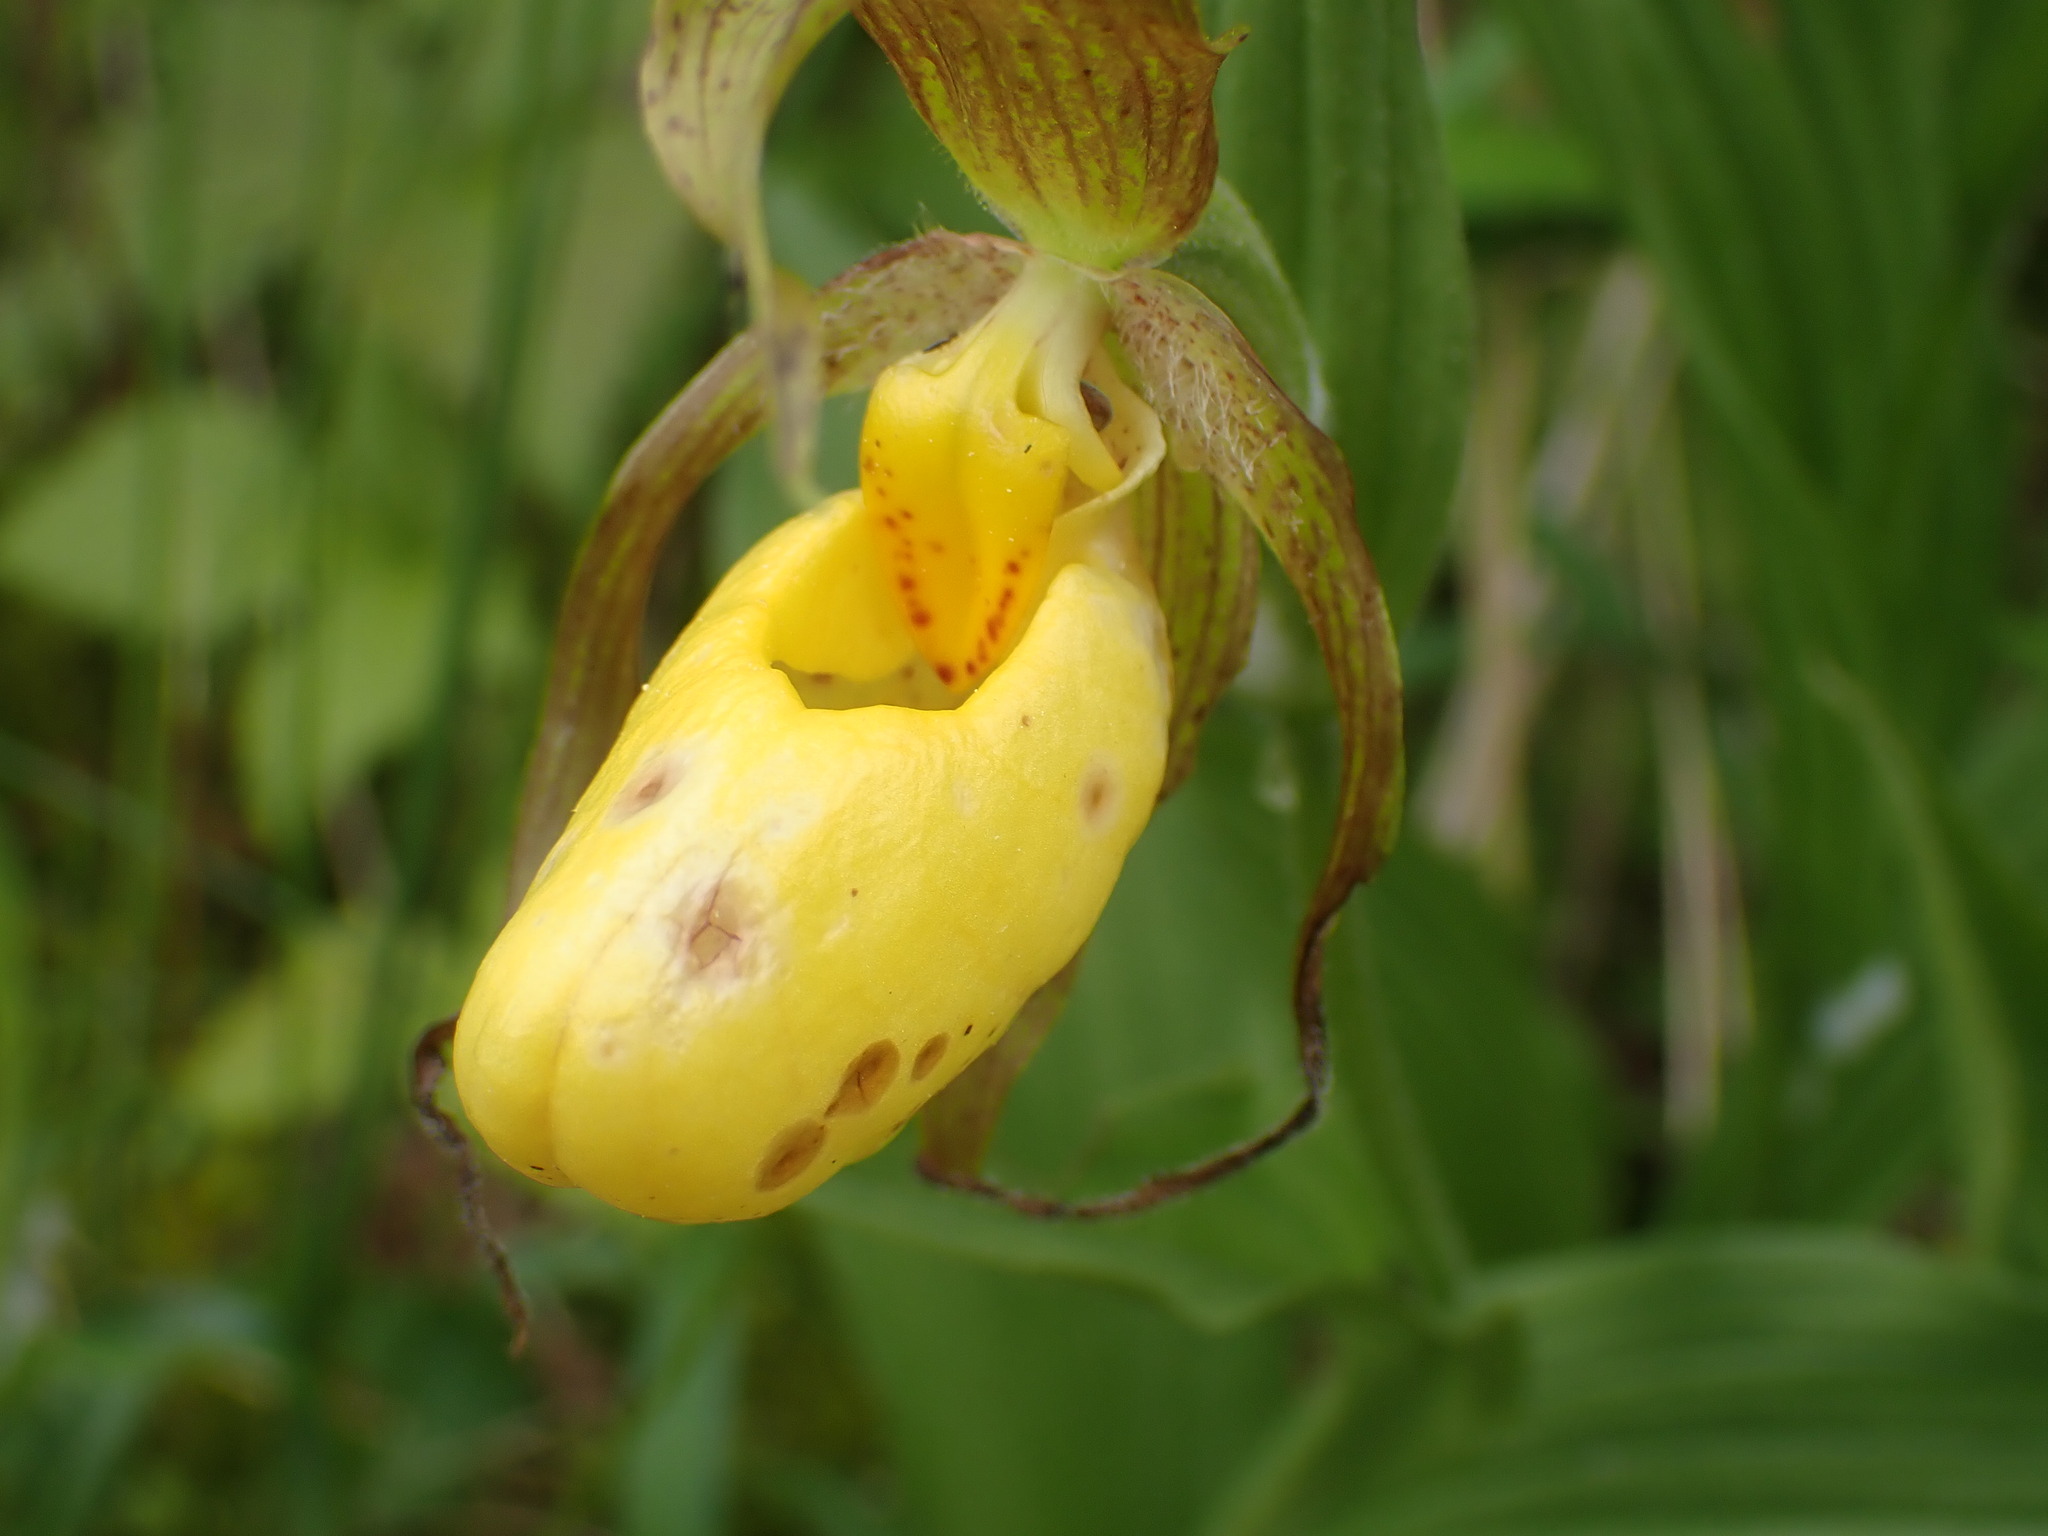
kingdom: Plantae
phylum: Tracheophyta
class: Liliopsida
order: Asparagales
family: Orchidaceae
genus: Cypripedium
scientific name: Cypripedium parviflorum
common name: American yellow lady's-slipper
